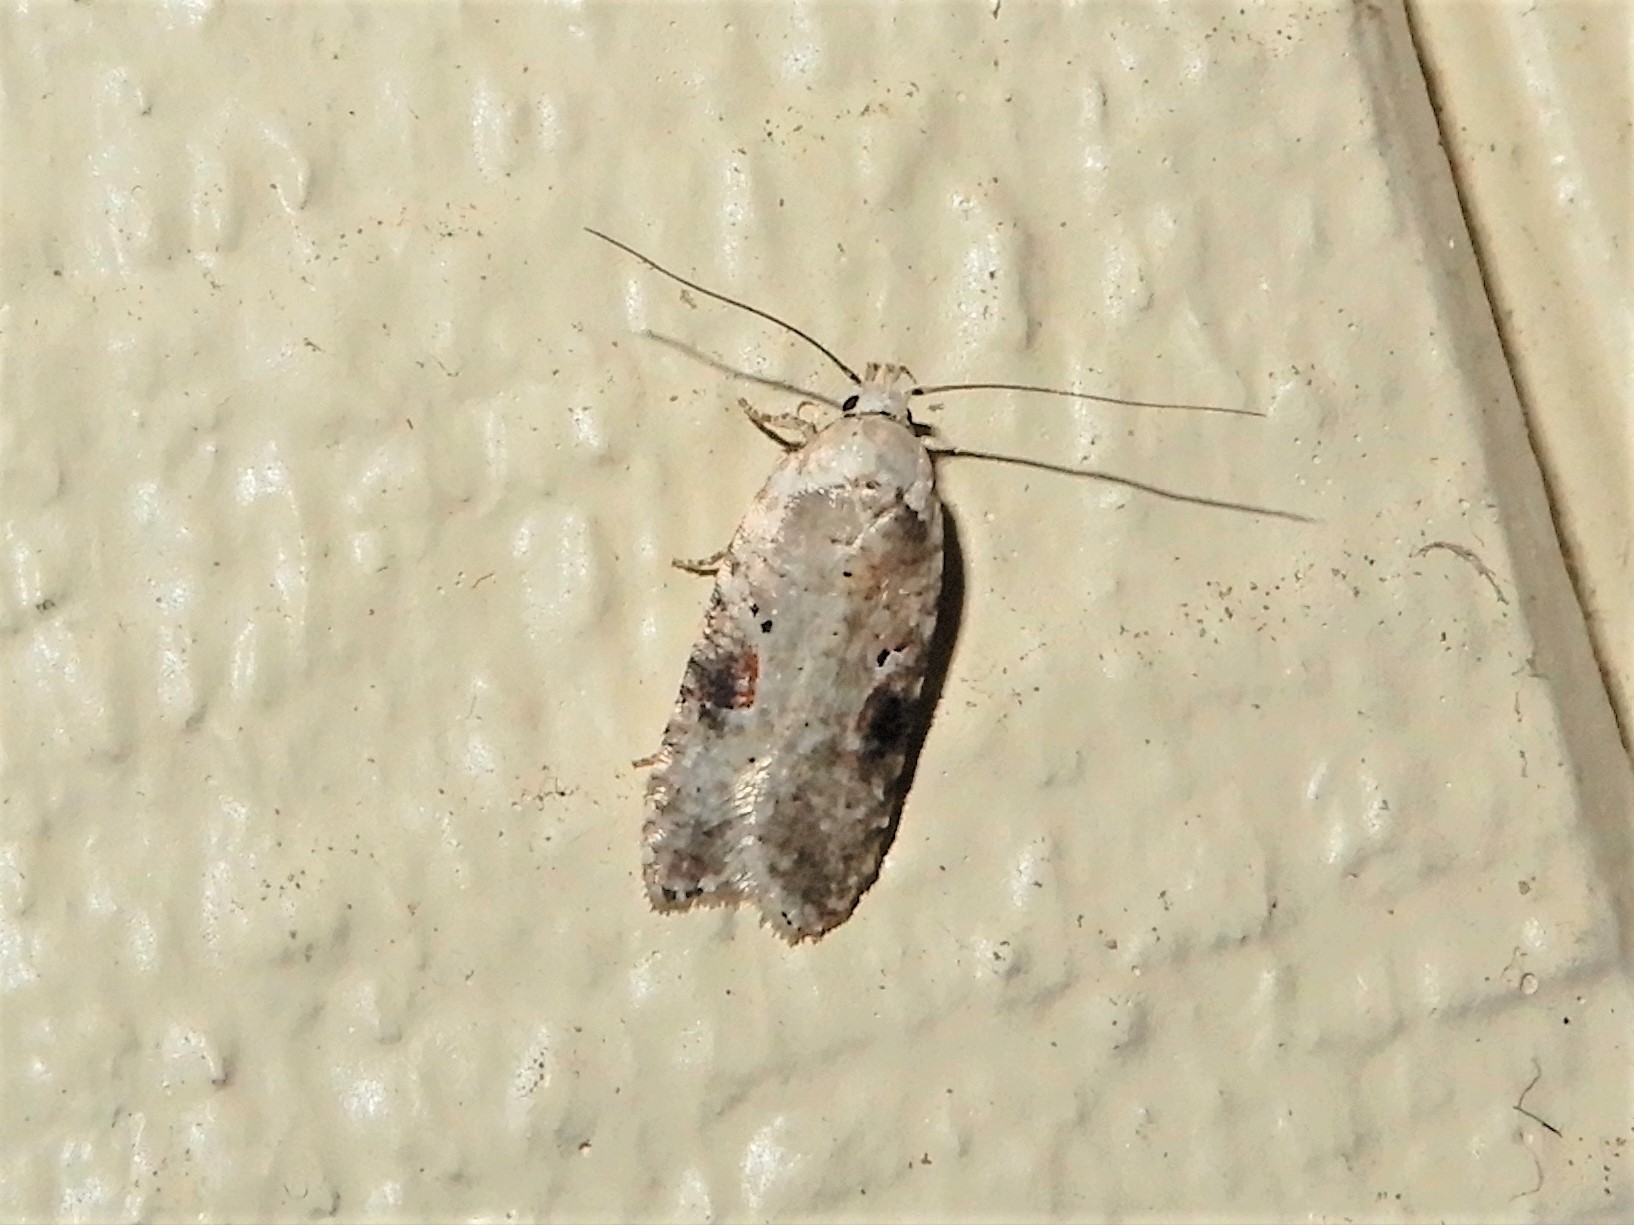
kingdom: Animalia
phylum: Arthropoda
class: Insecta
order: Lepidoptera
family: Depressariidae
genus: Agonopterix
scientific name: Agonopterix alstroemeriana
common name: Moth
